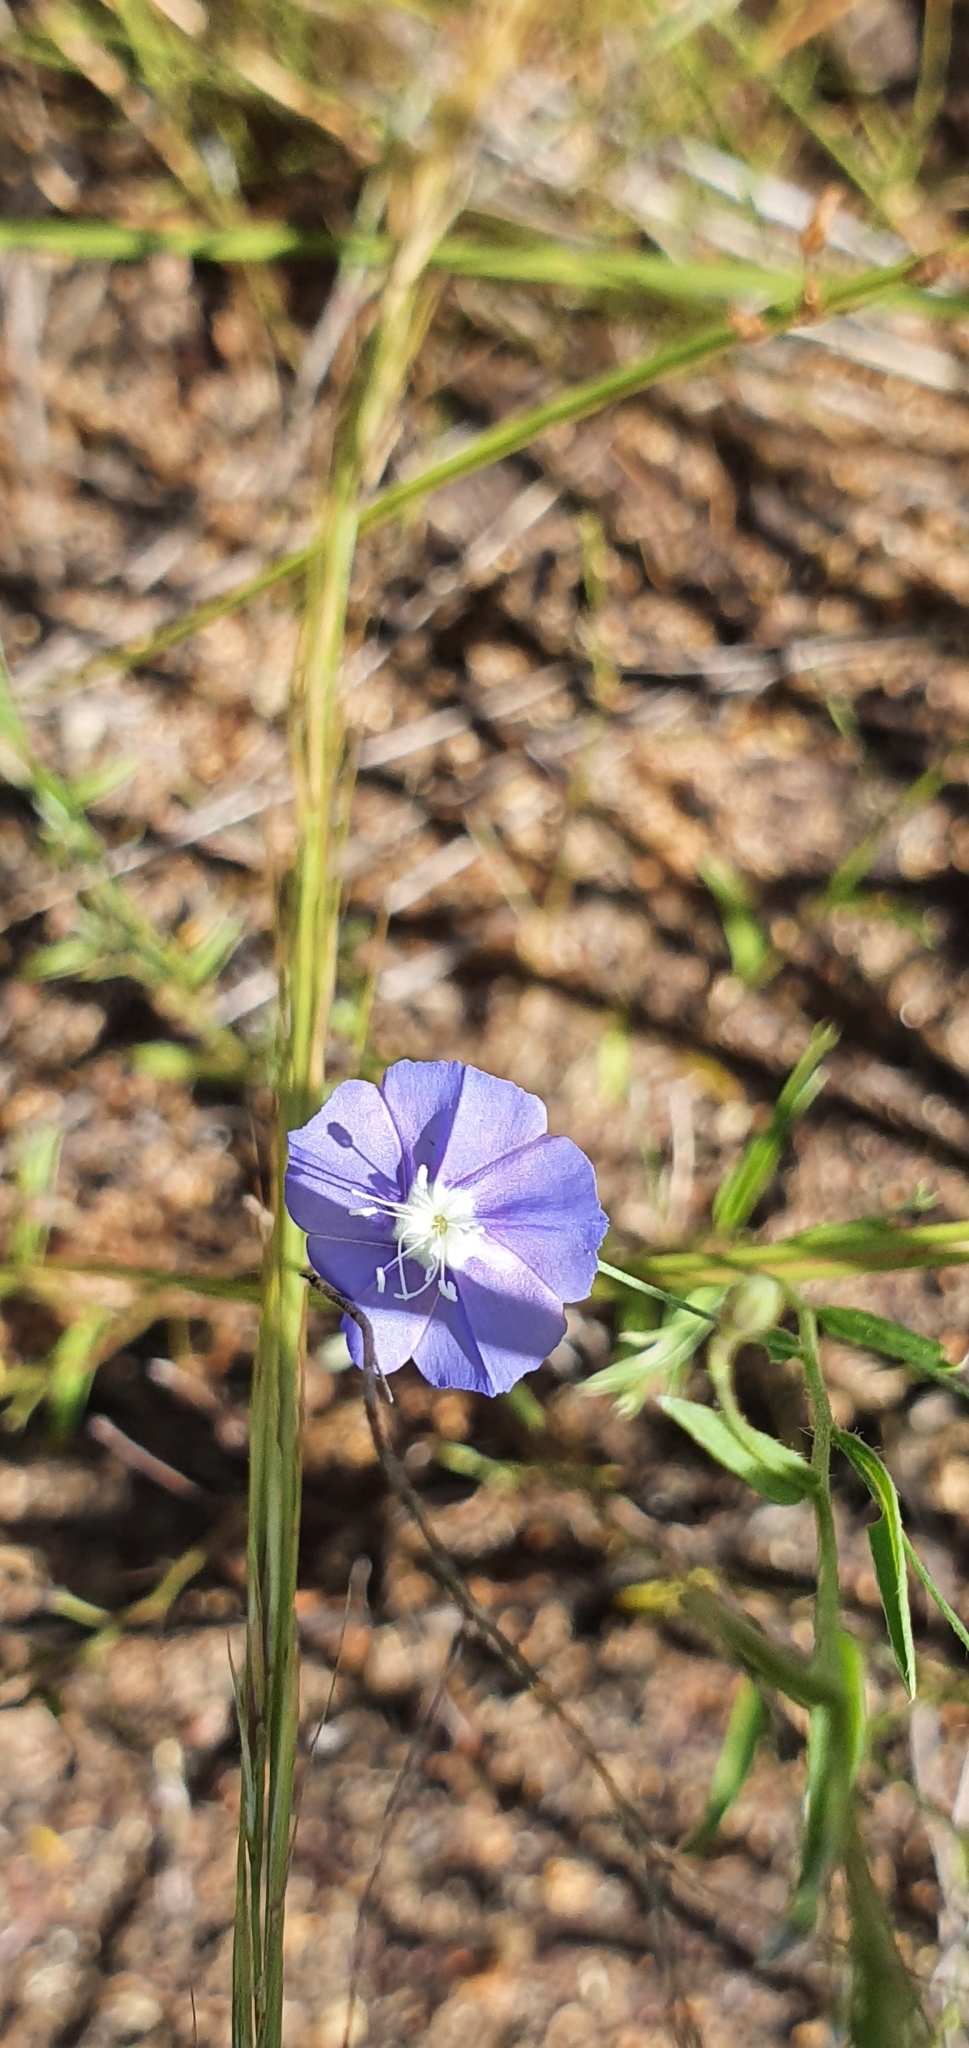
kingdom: Plantae
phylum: Tracheophyta
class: Magnoliopsida
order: Solanales
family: Convolvulaceae
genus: Evolvulus
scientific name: Evolvulus alsinoides
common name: Slender dwarf morning-glory
